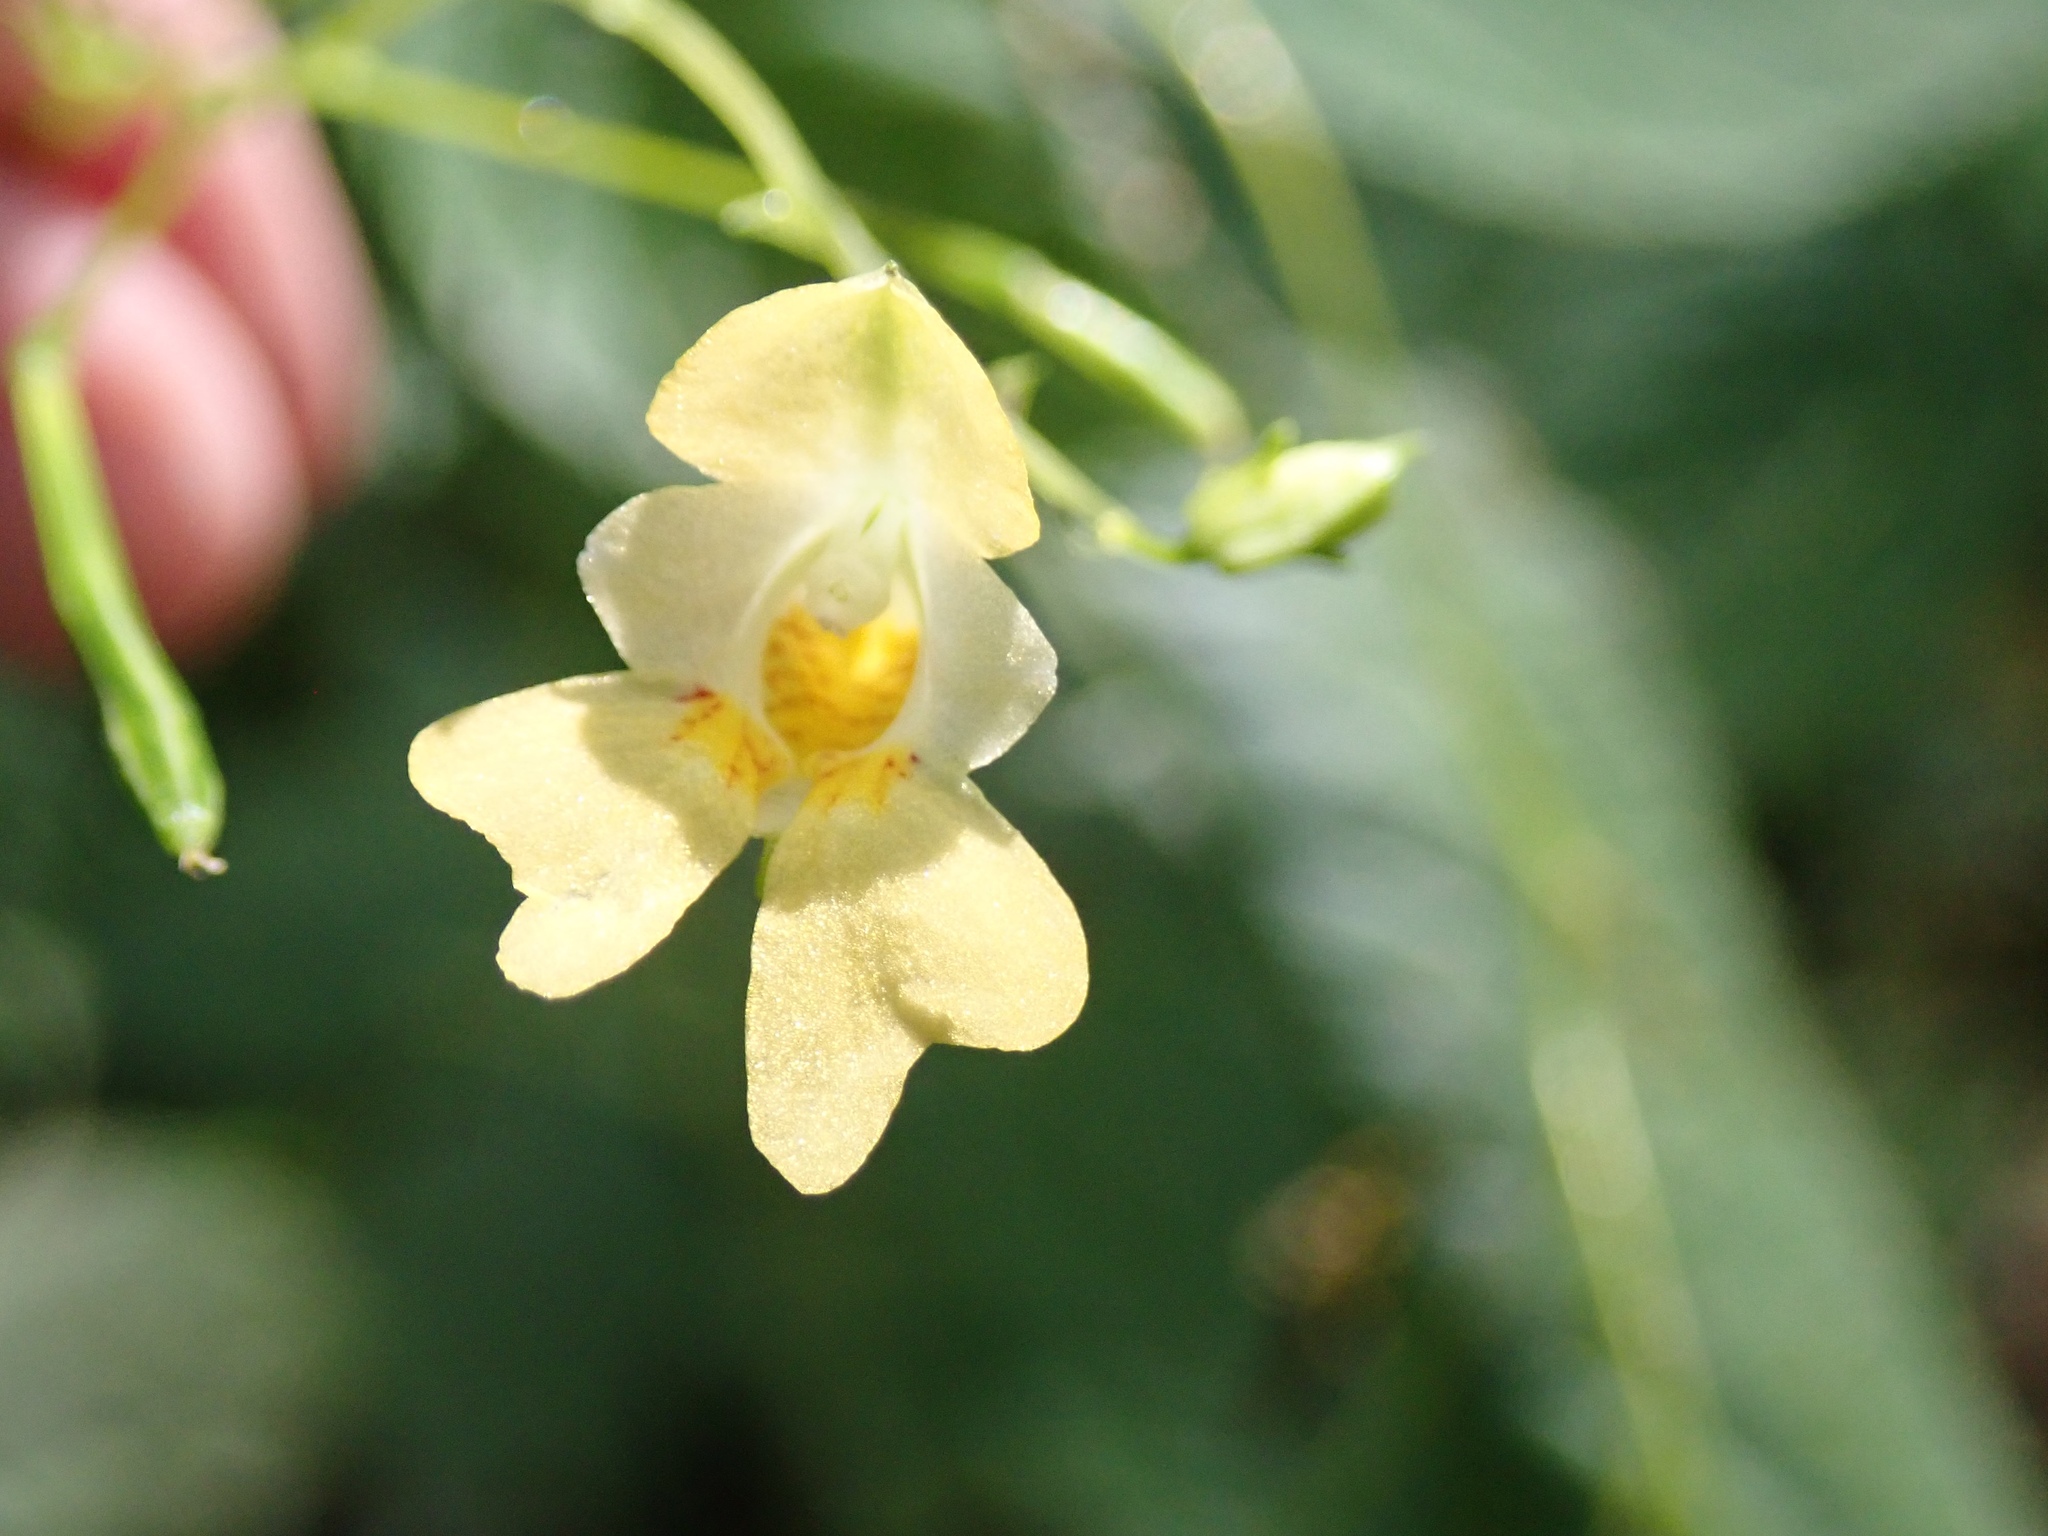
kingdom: Plantae
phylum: Tracheophyta
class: Magnoliopsida
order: Ericales
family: Balsaminaceae
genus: Impatiens
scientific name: Impatiens parviflora
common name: Small balsam
